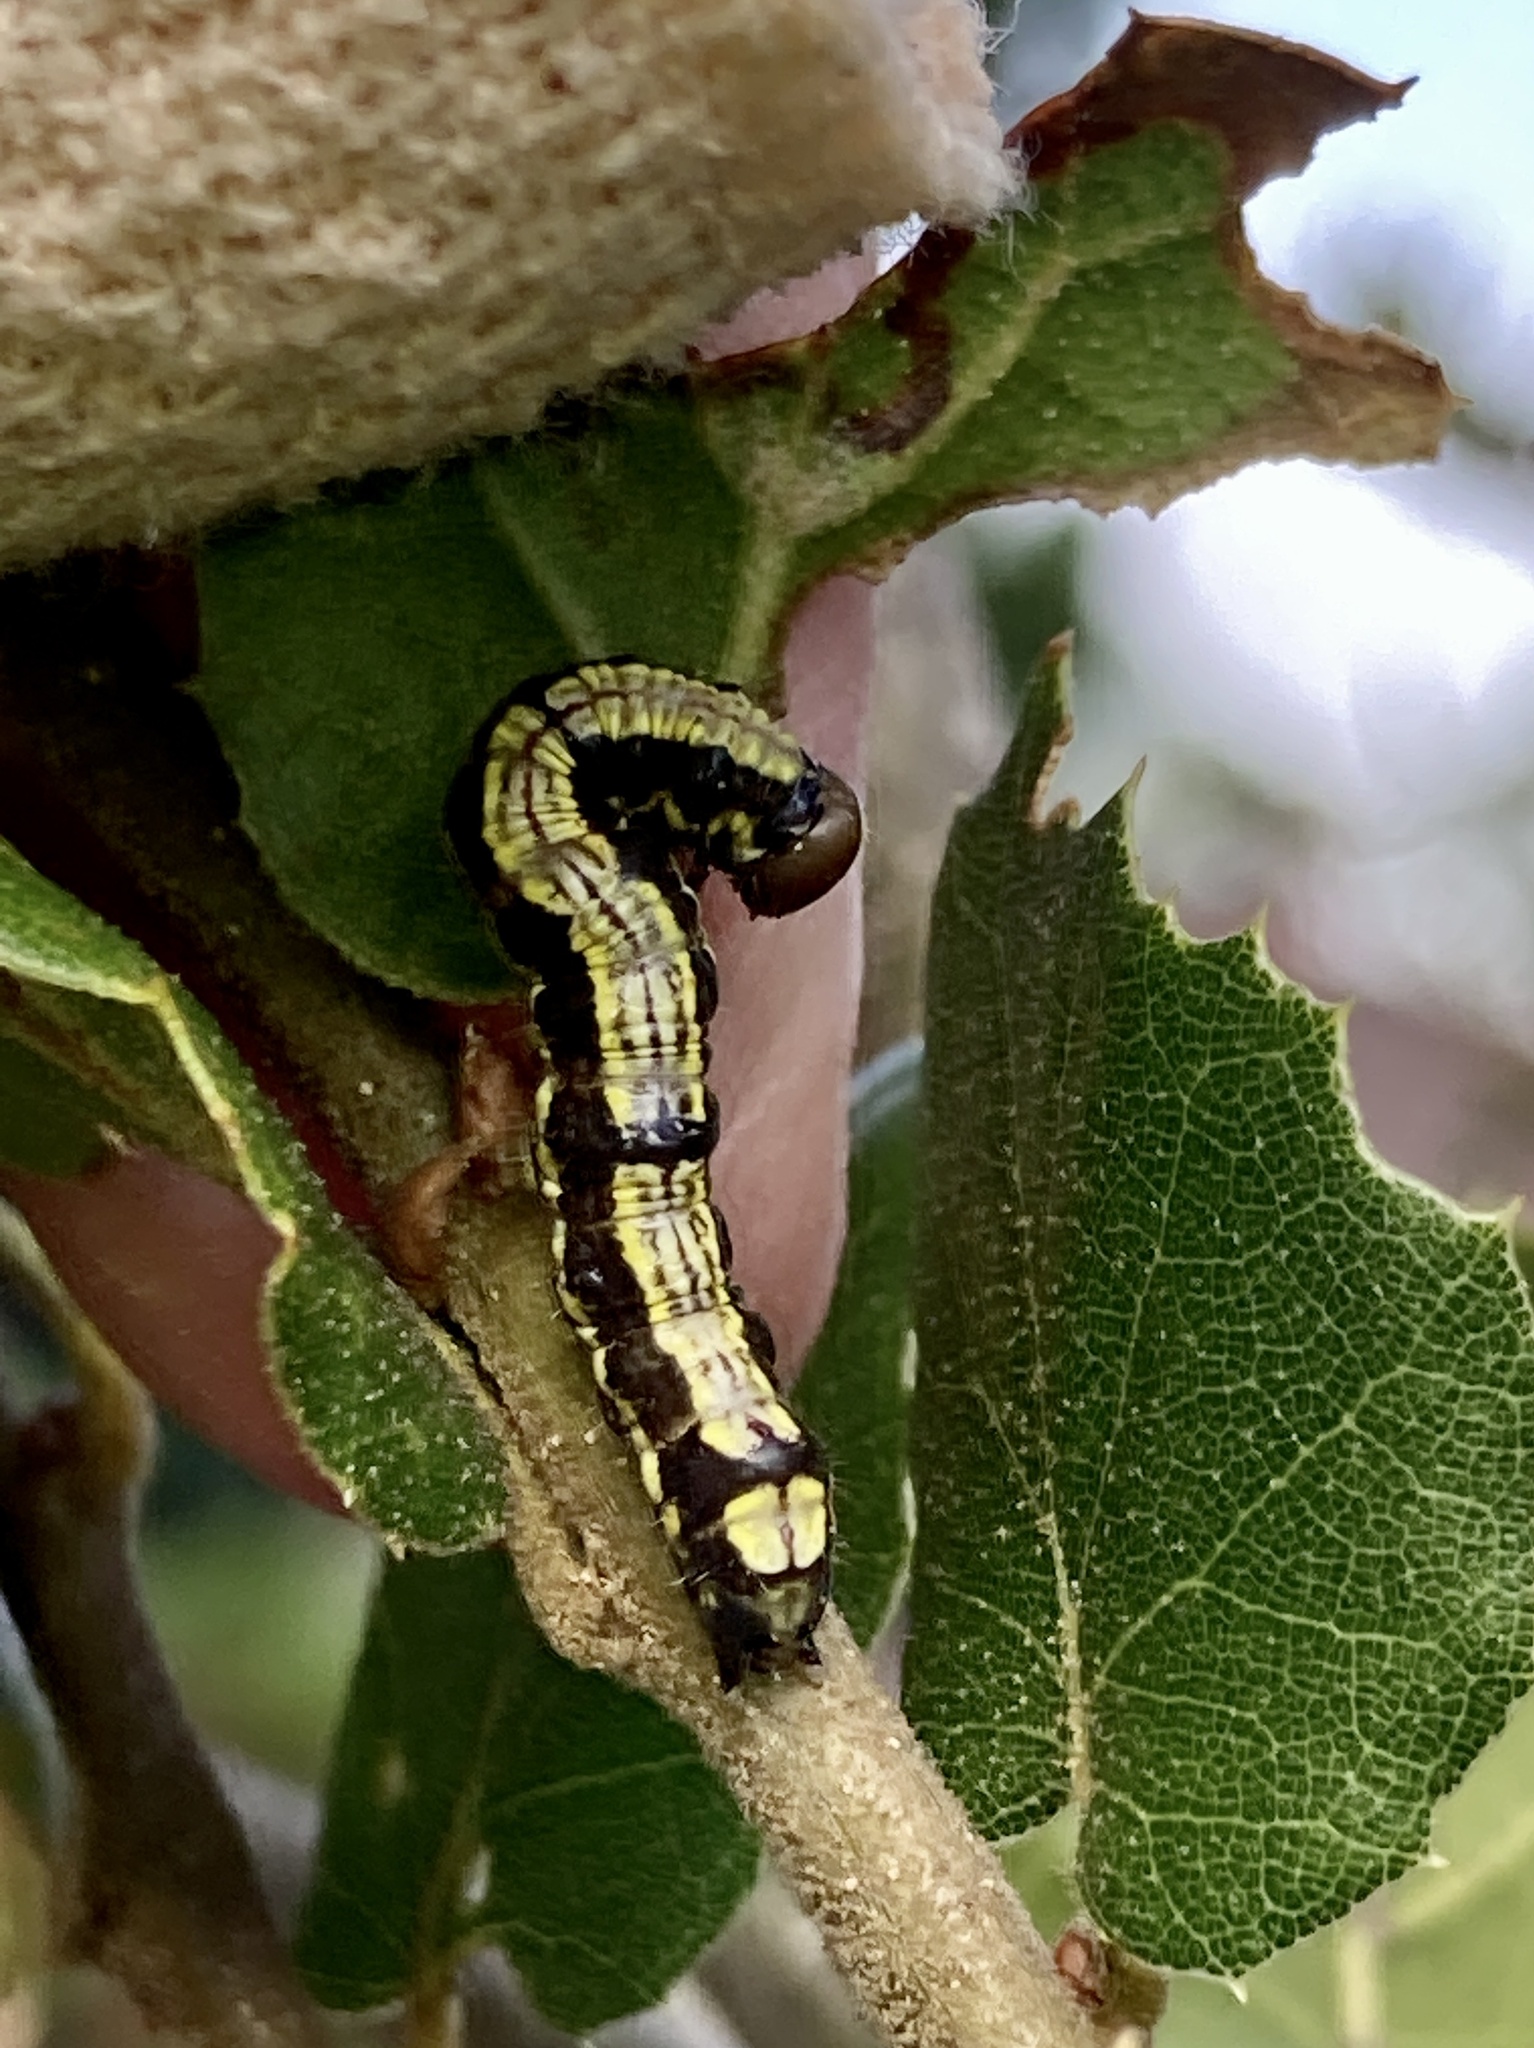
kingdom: Animalia
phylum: Arthropoda
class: Insecta
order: Lepidoptera
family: Notodontidae
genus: Phryganidia
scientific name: Phryganidia californica
